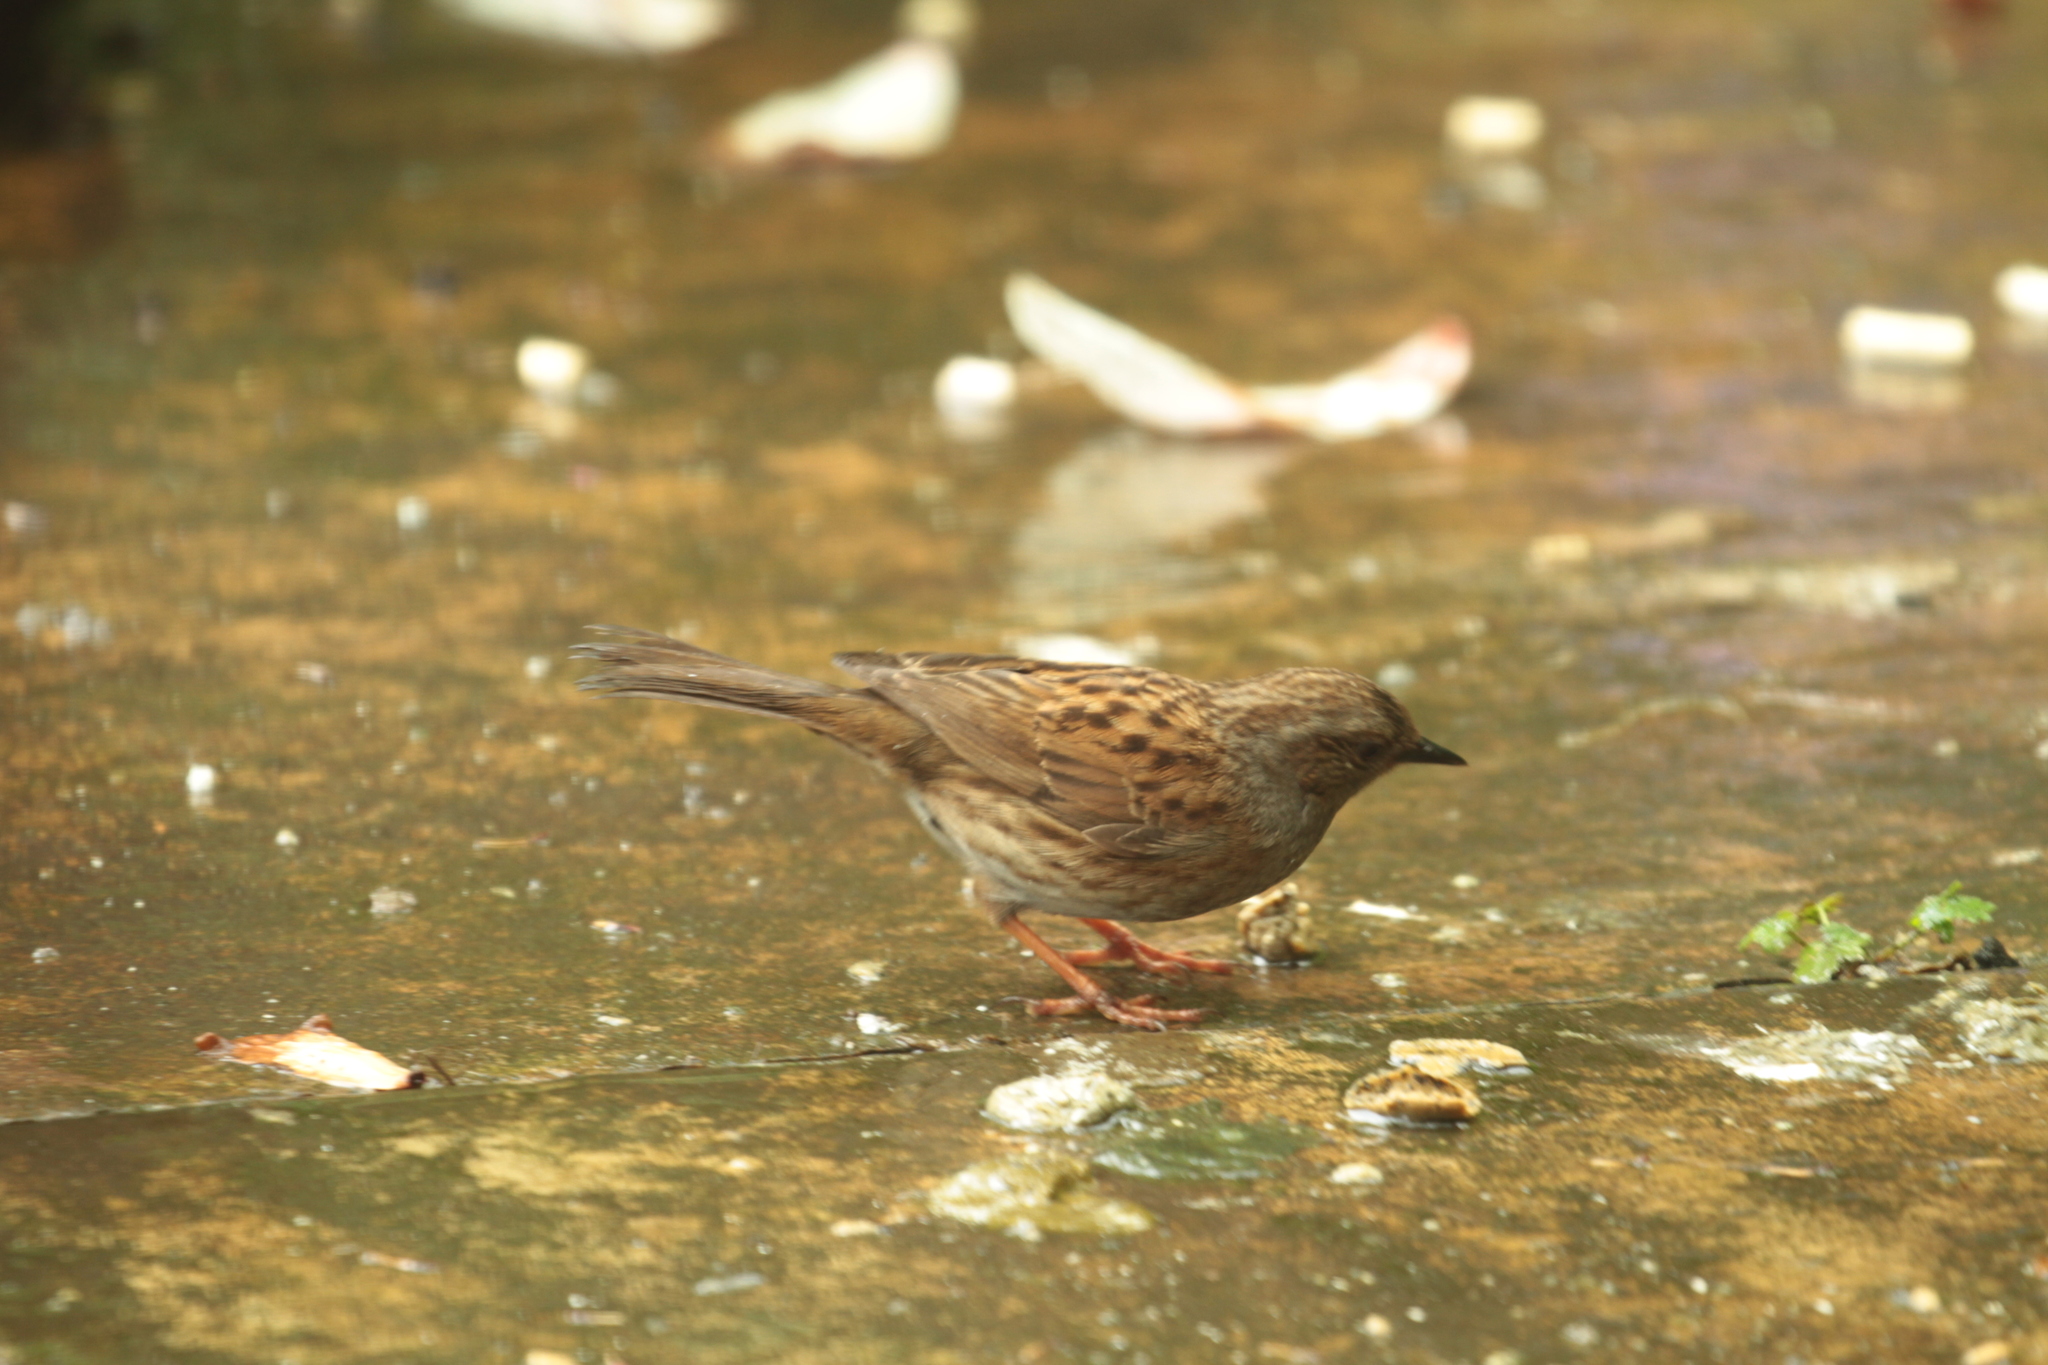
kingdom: Animalia
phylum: Chordata
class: Aves
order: Passeriformes
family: Prunellidae
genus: Prunella
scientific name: Prunella modularis
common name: Dunnock
